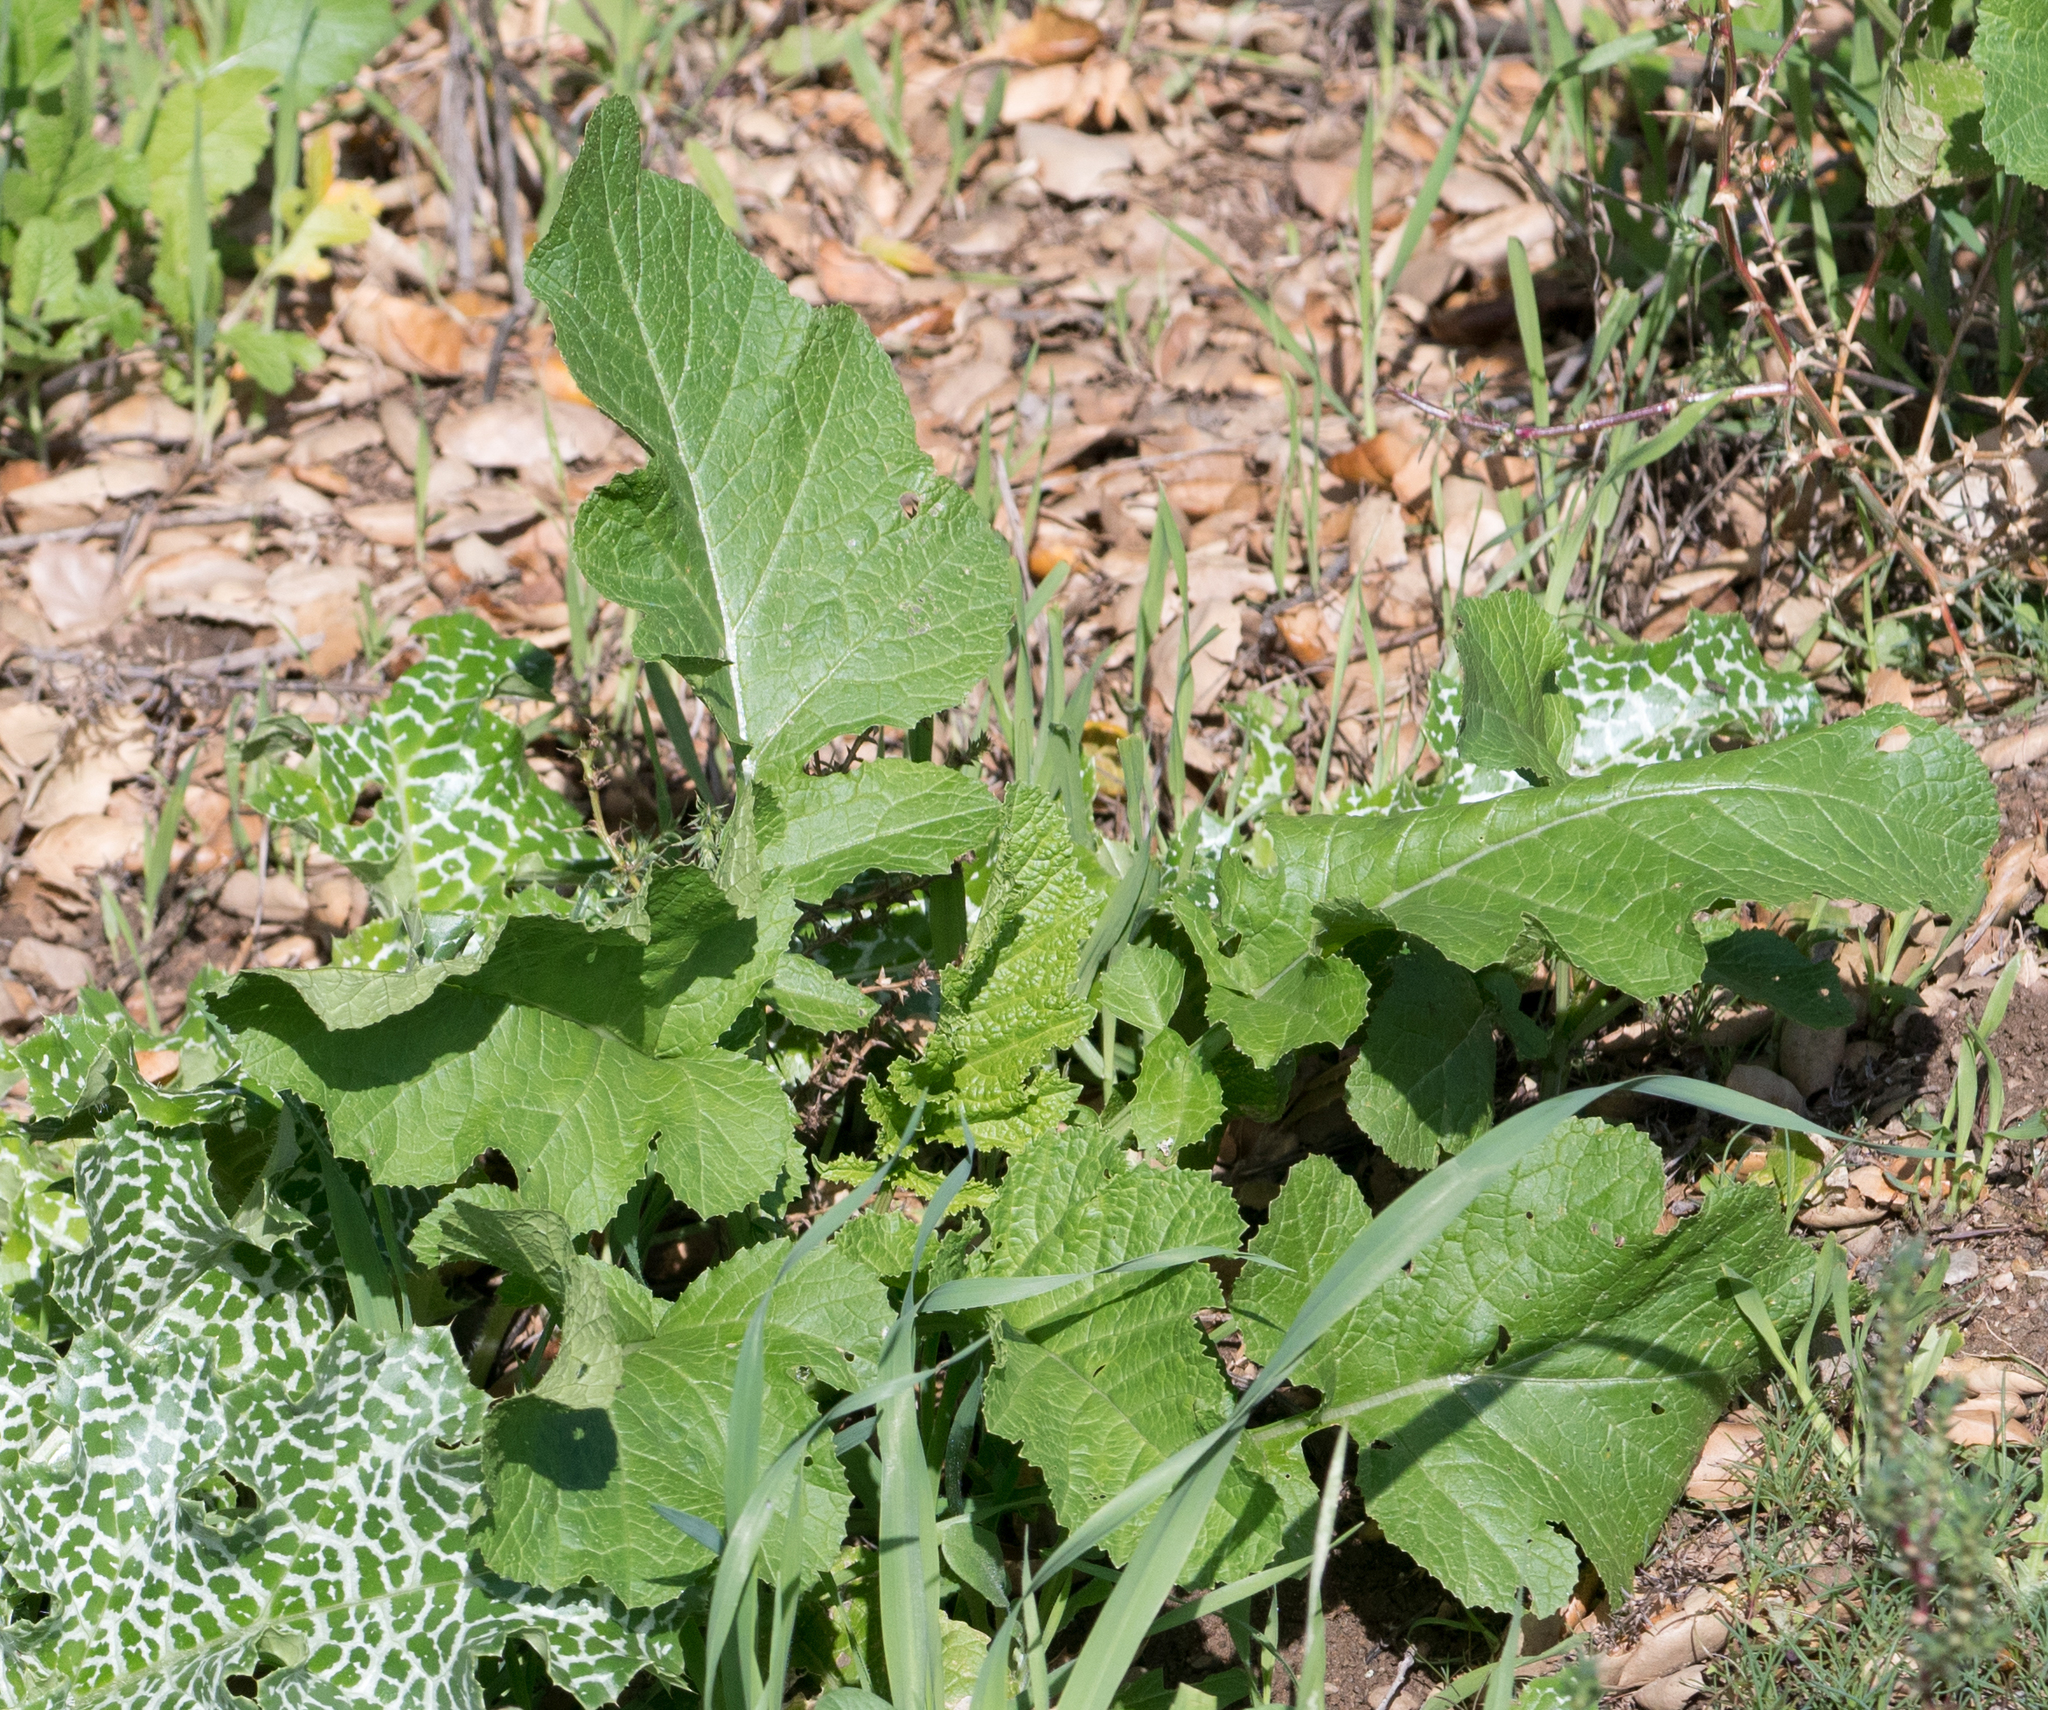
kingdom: Plantae
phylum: Tracheophyta
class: Magnoliopsida
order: Brassicales
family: Brassicaceae
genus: Brassica
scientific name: Brassica nigra
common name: Black mustard
